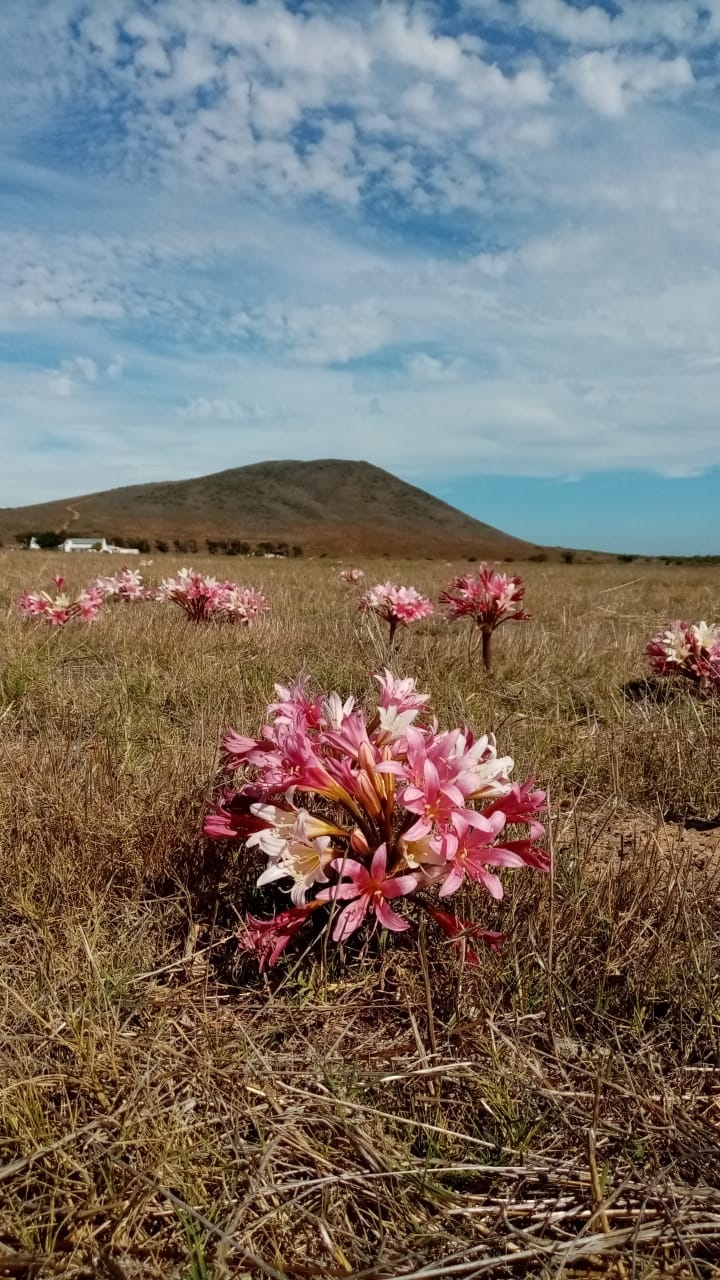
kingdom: Plantae
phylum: Tracheophyta
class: Liliopsida
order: Asparagales
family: Amaryllidaceae
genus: Ammocharis
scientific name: Ammocharis longifolia
